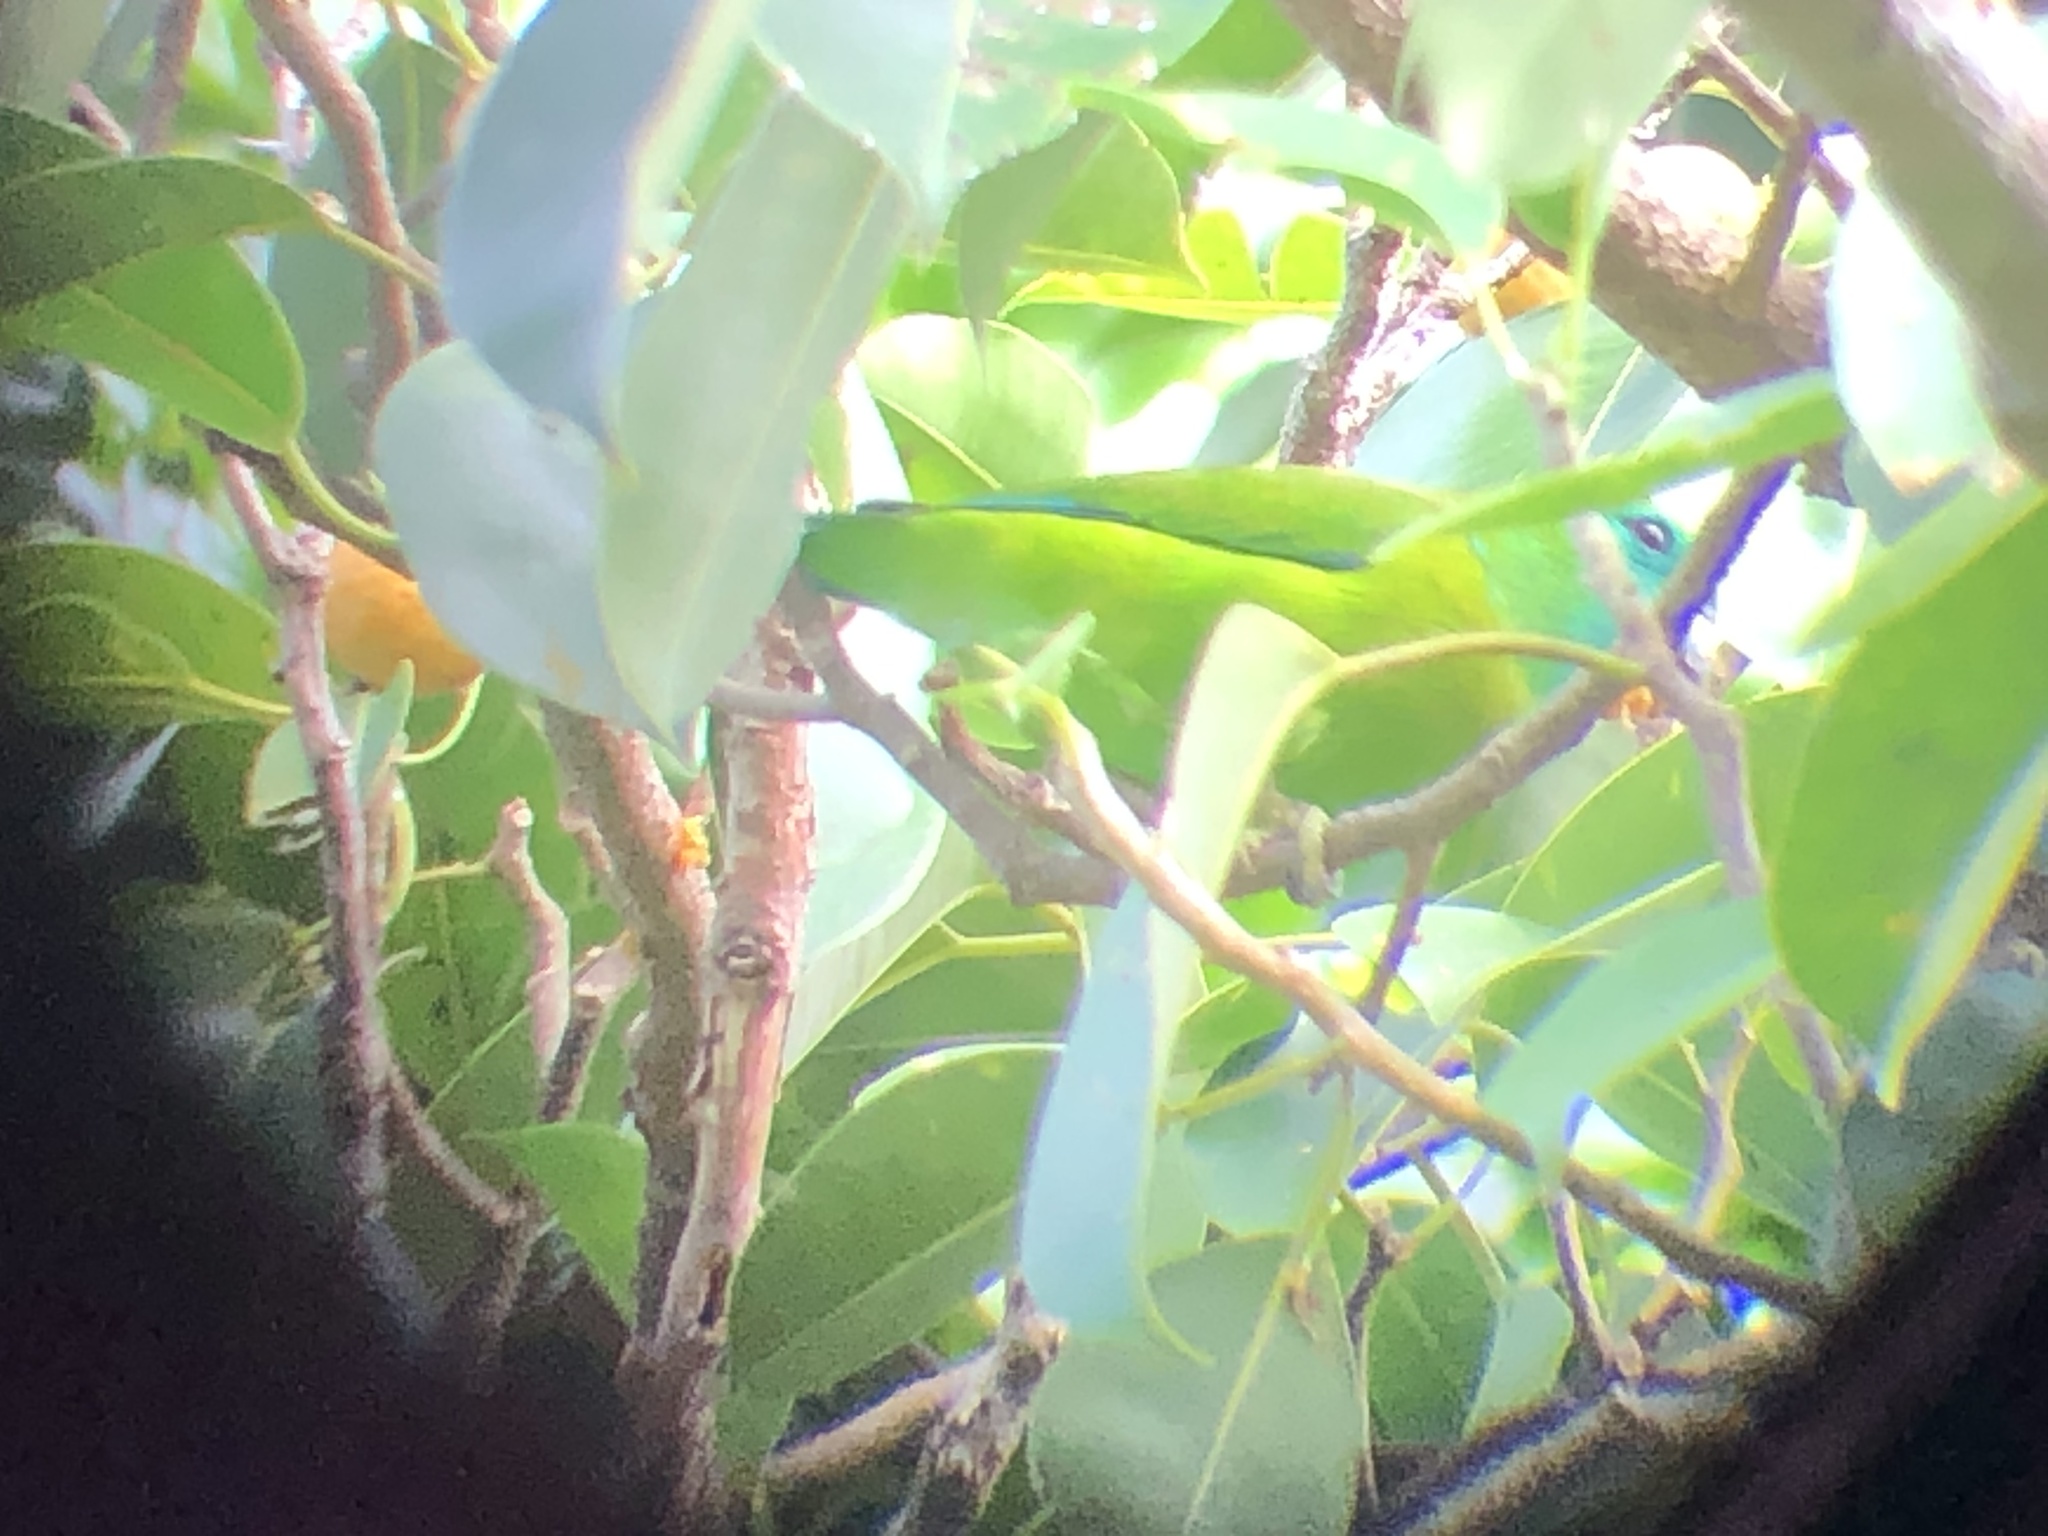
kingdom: Animalia
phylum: Chordata
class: Aves
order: Psittaciformes
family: Psittacidae
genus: Bolbopsittacus
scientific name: Bolbopsittacus lunulatus
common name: Guaiabero
